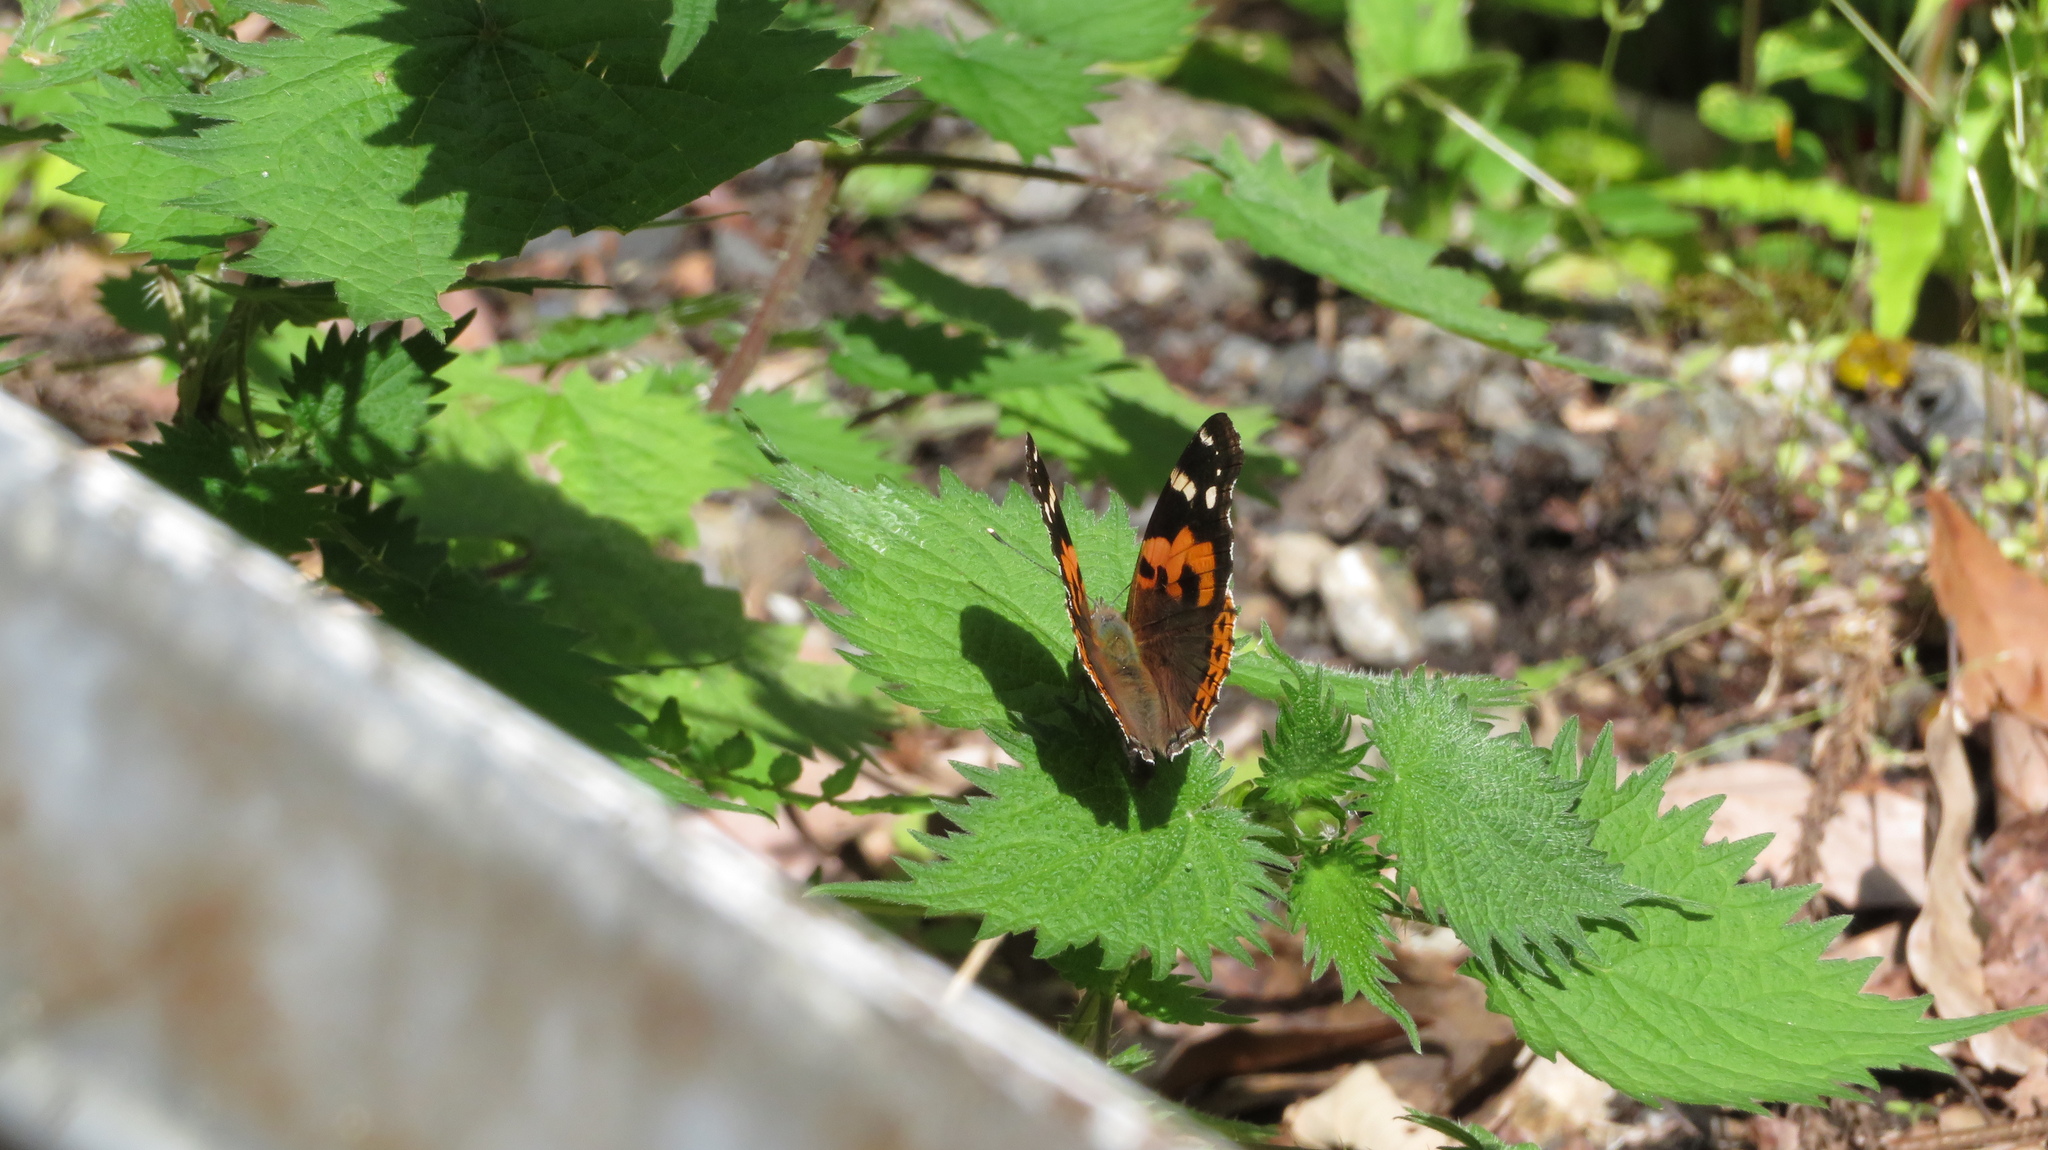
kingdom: Animalia
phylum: Arthropoda
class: Insecta
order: Lepidoptera
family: Nymphalidae
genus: Vanessa
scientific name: Vanessa indica
